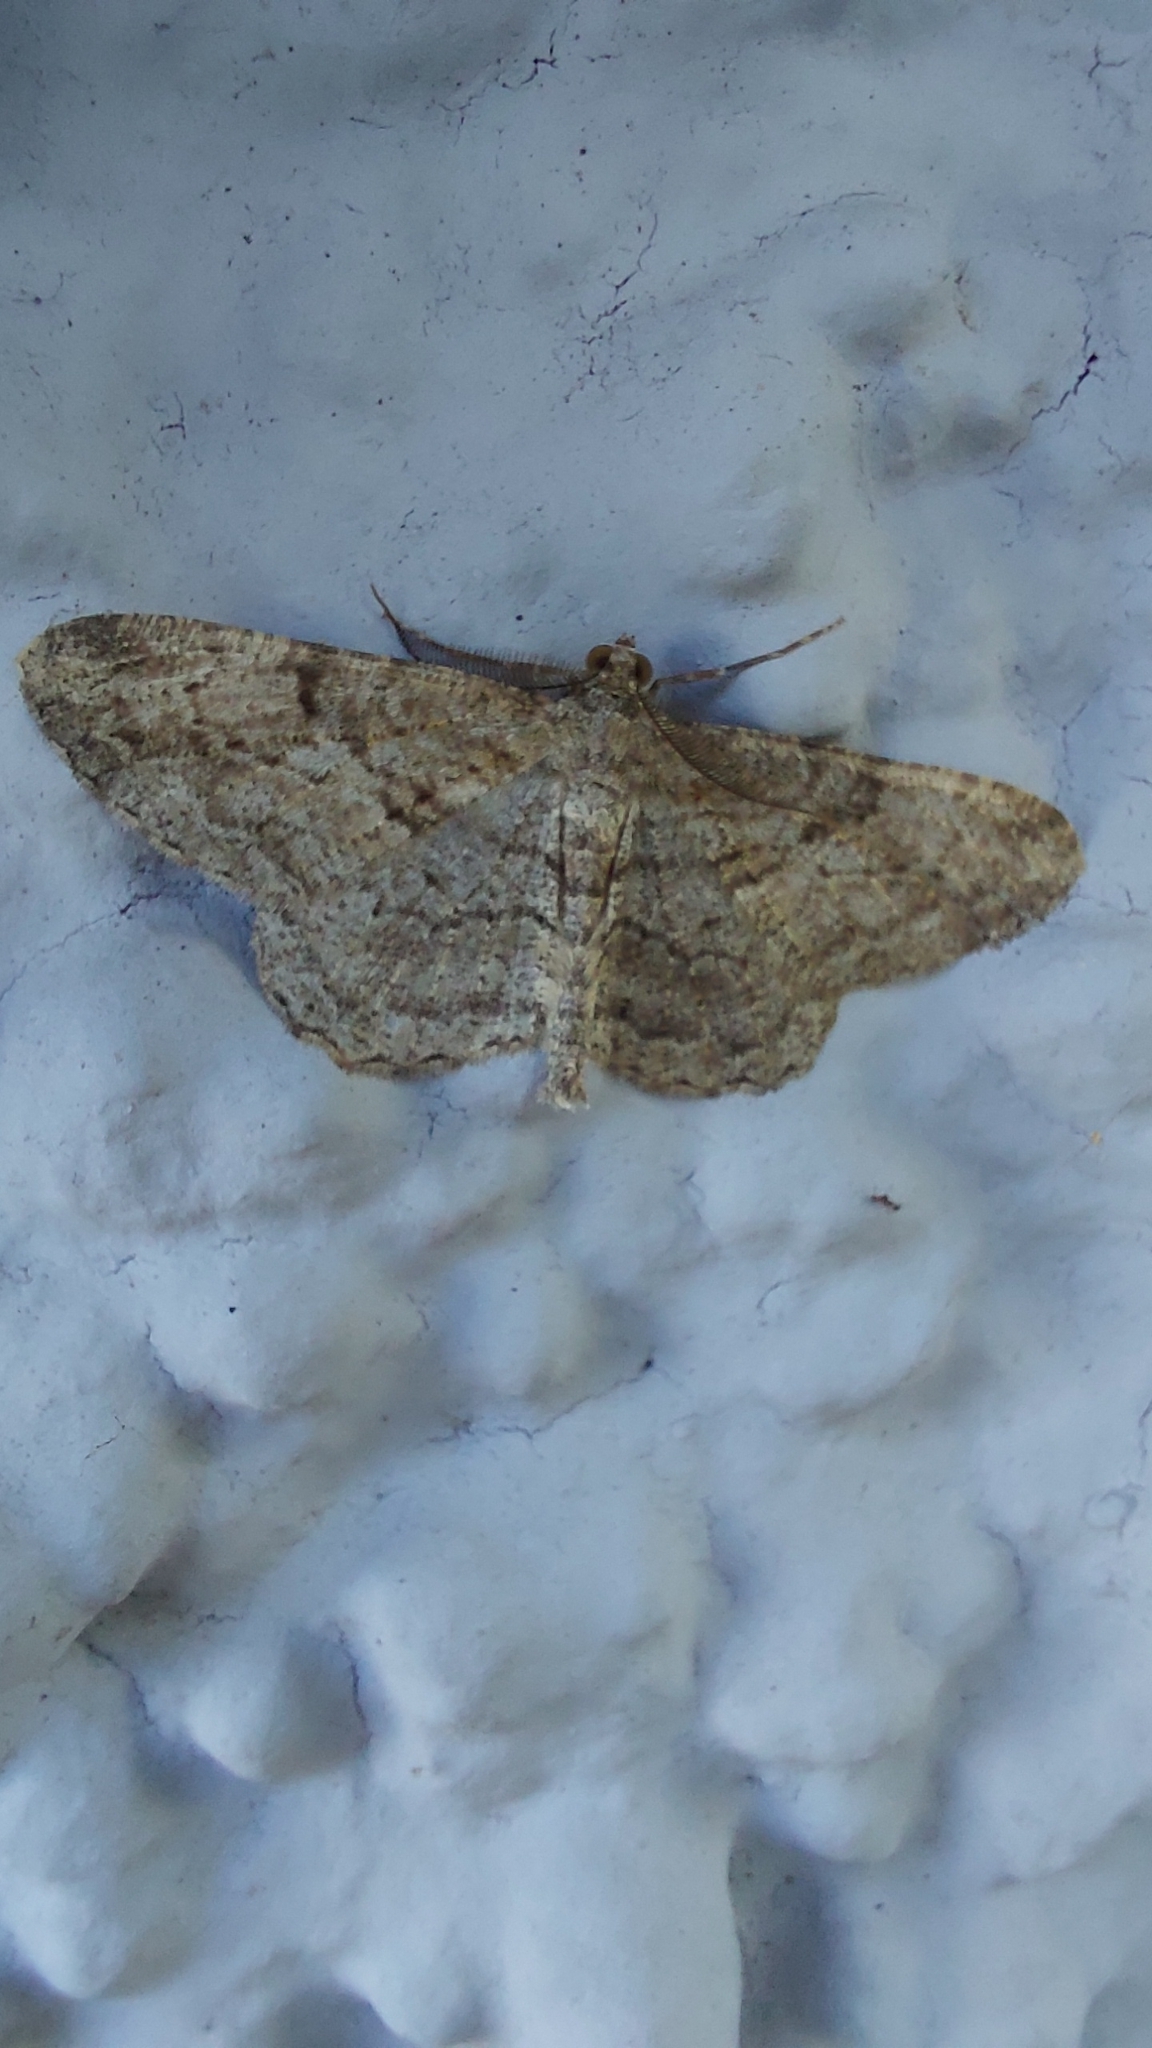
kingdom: Animalia
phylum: Arthropoda
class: Insecta
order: Lepidoptera
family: Geometridae
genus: Peribatodes
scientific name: Peribatodes rhomboidaria
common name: Willow beauty
